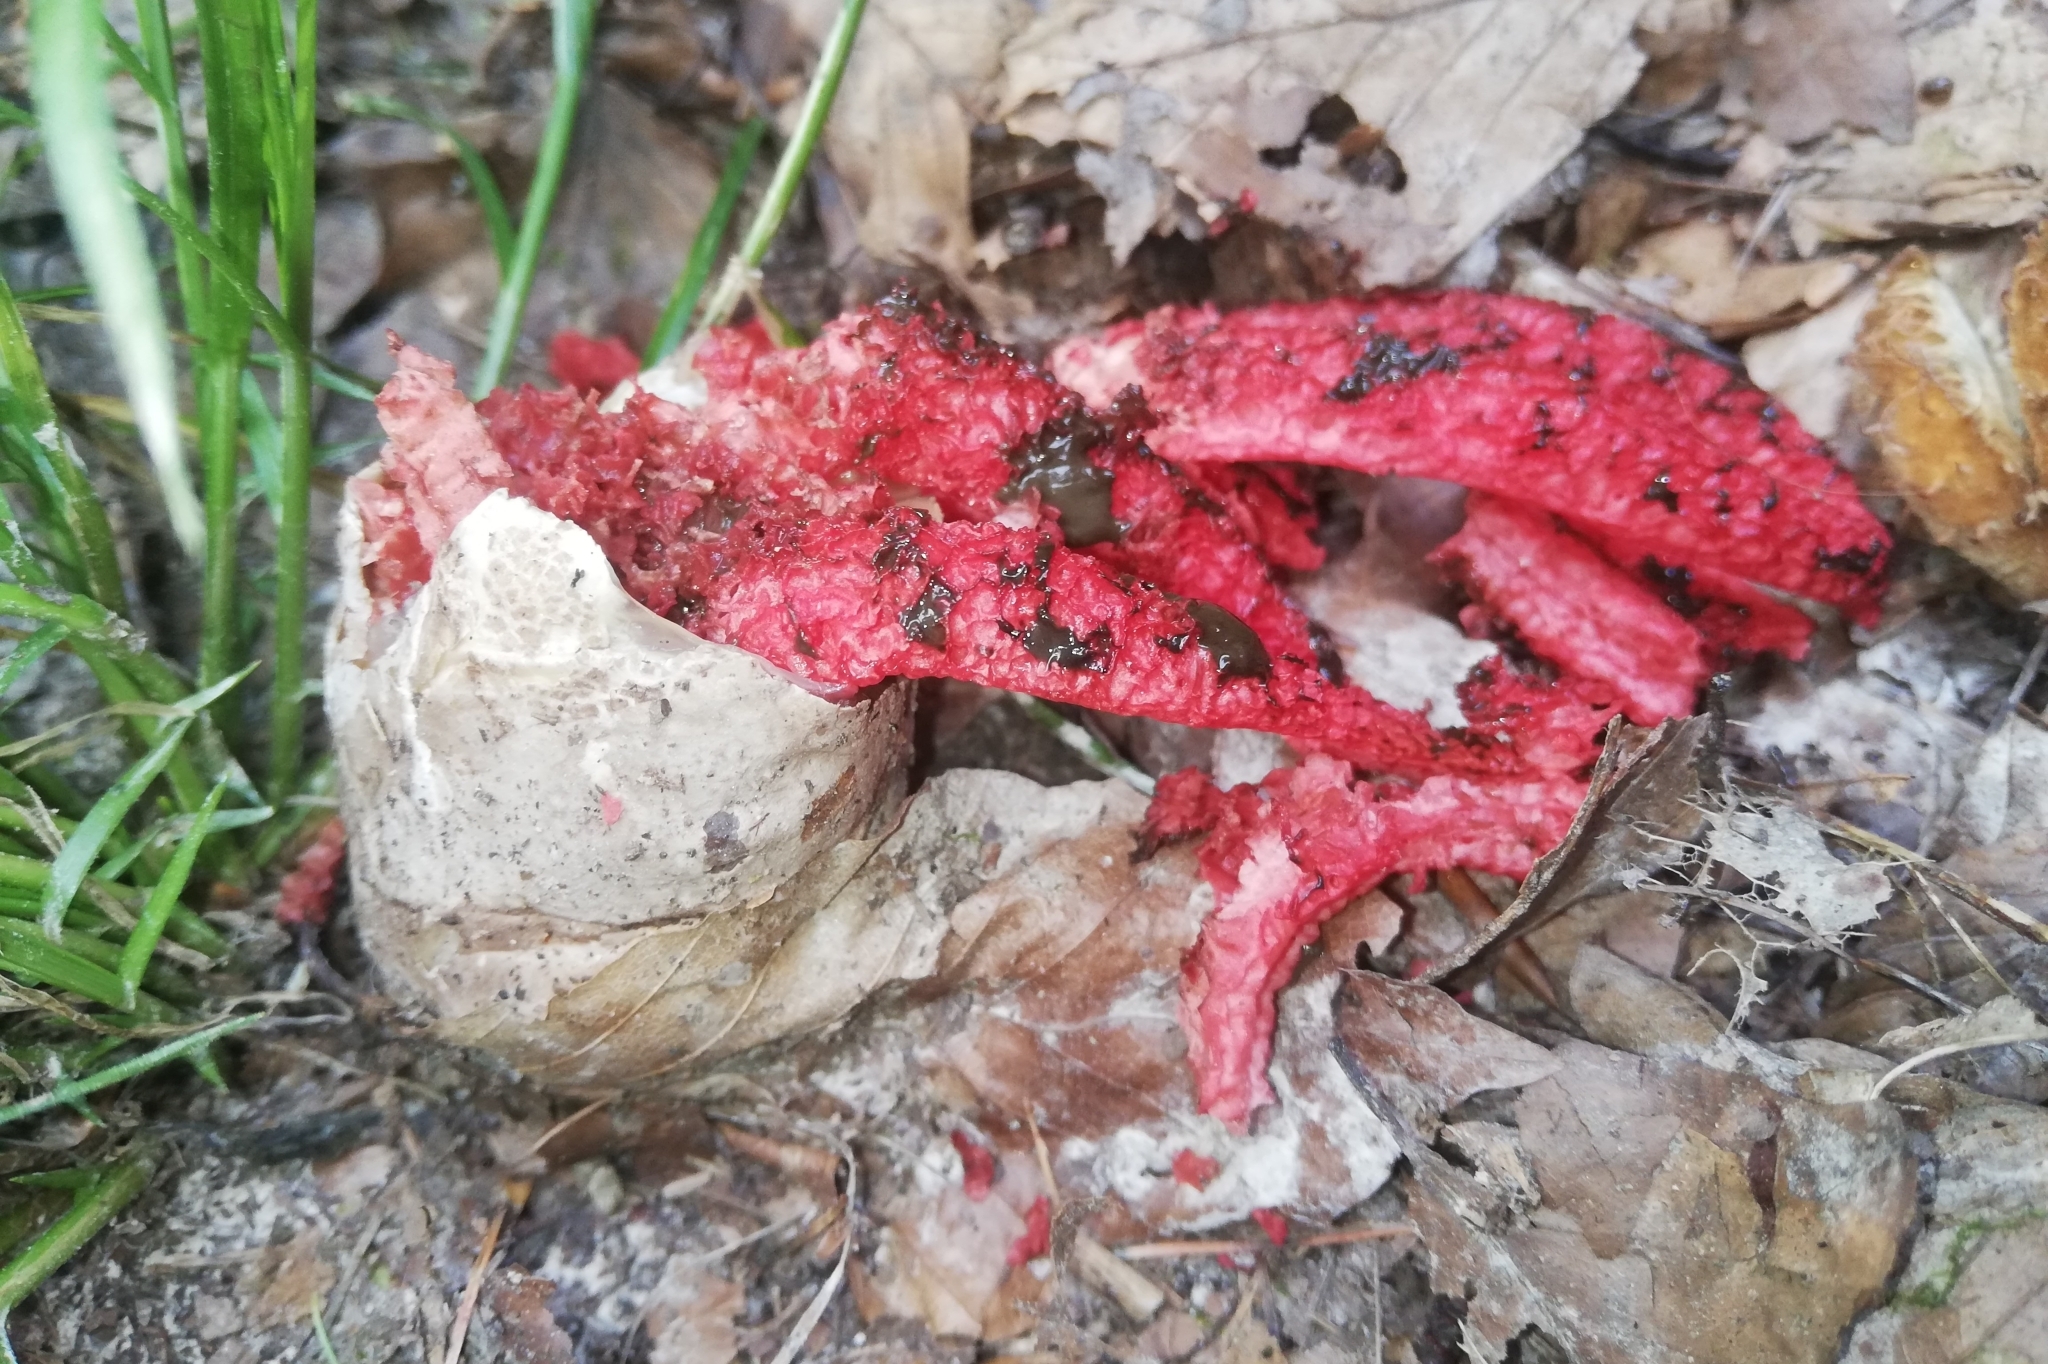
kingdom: Fungi
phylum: Basidiomycota
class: Agaricomycetes
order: Phallales
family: Phallaceae
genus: Clathrus
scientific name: Clathrus archeri
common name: Devil's fingers
